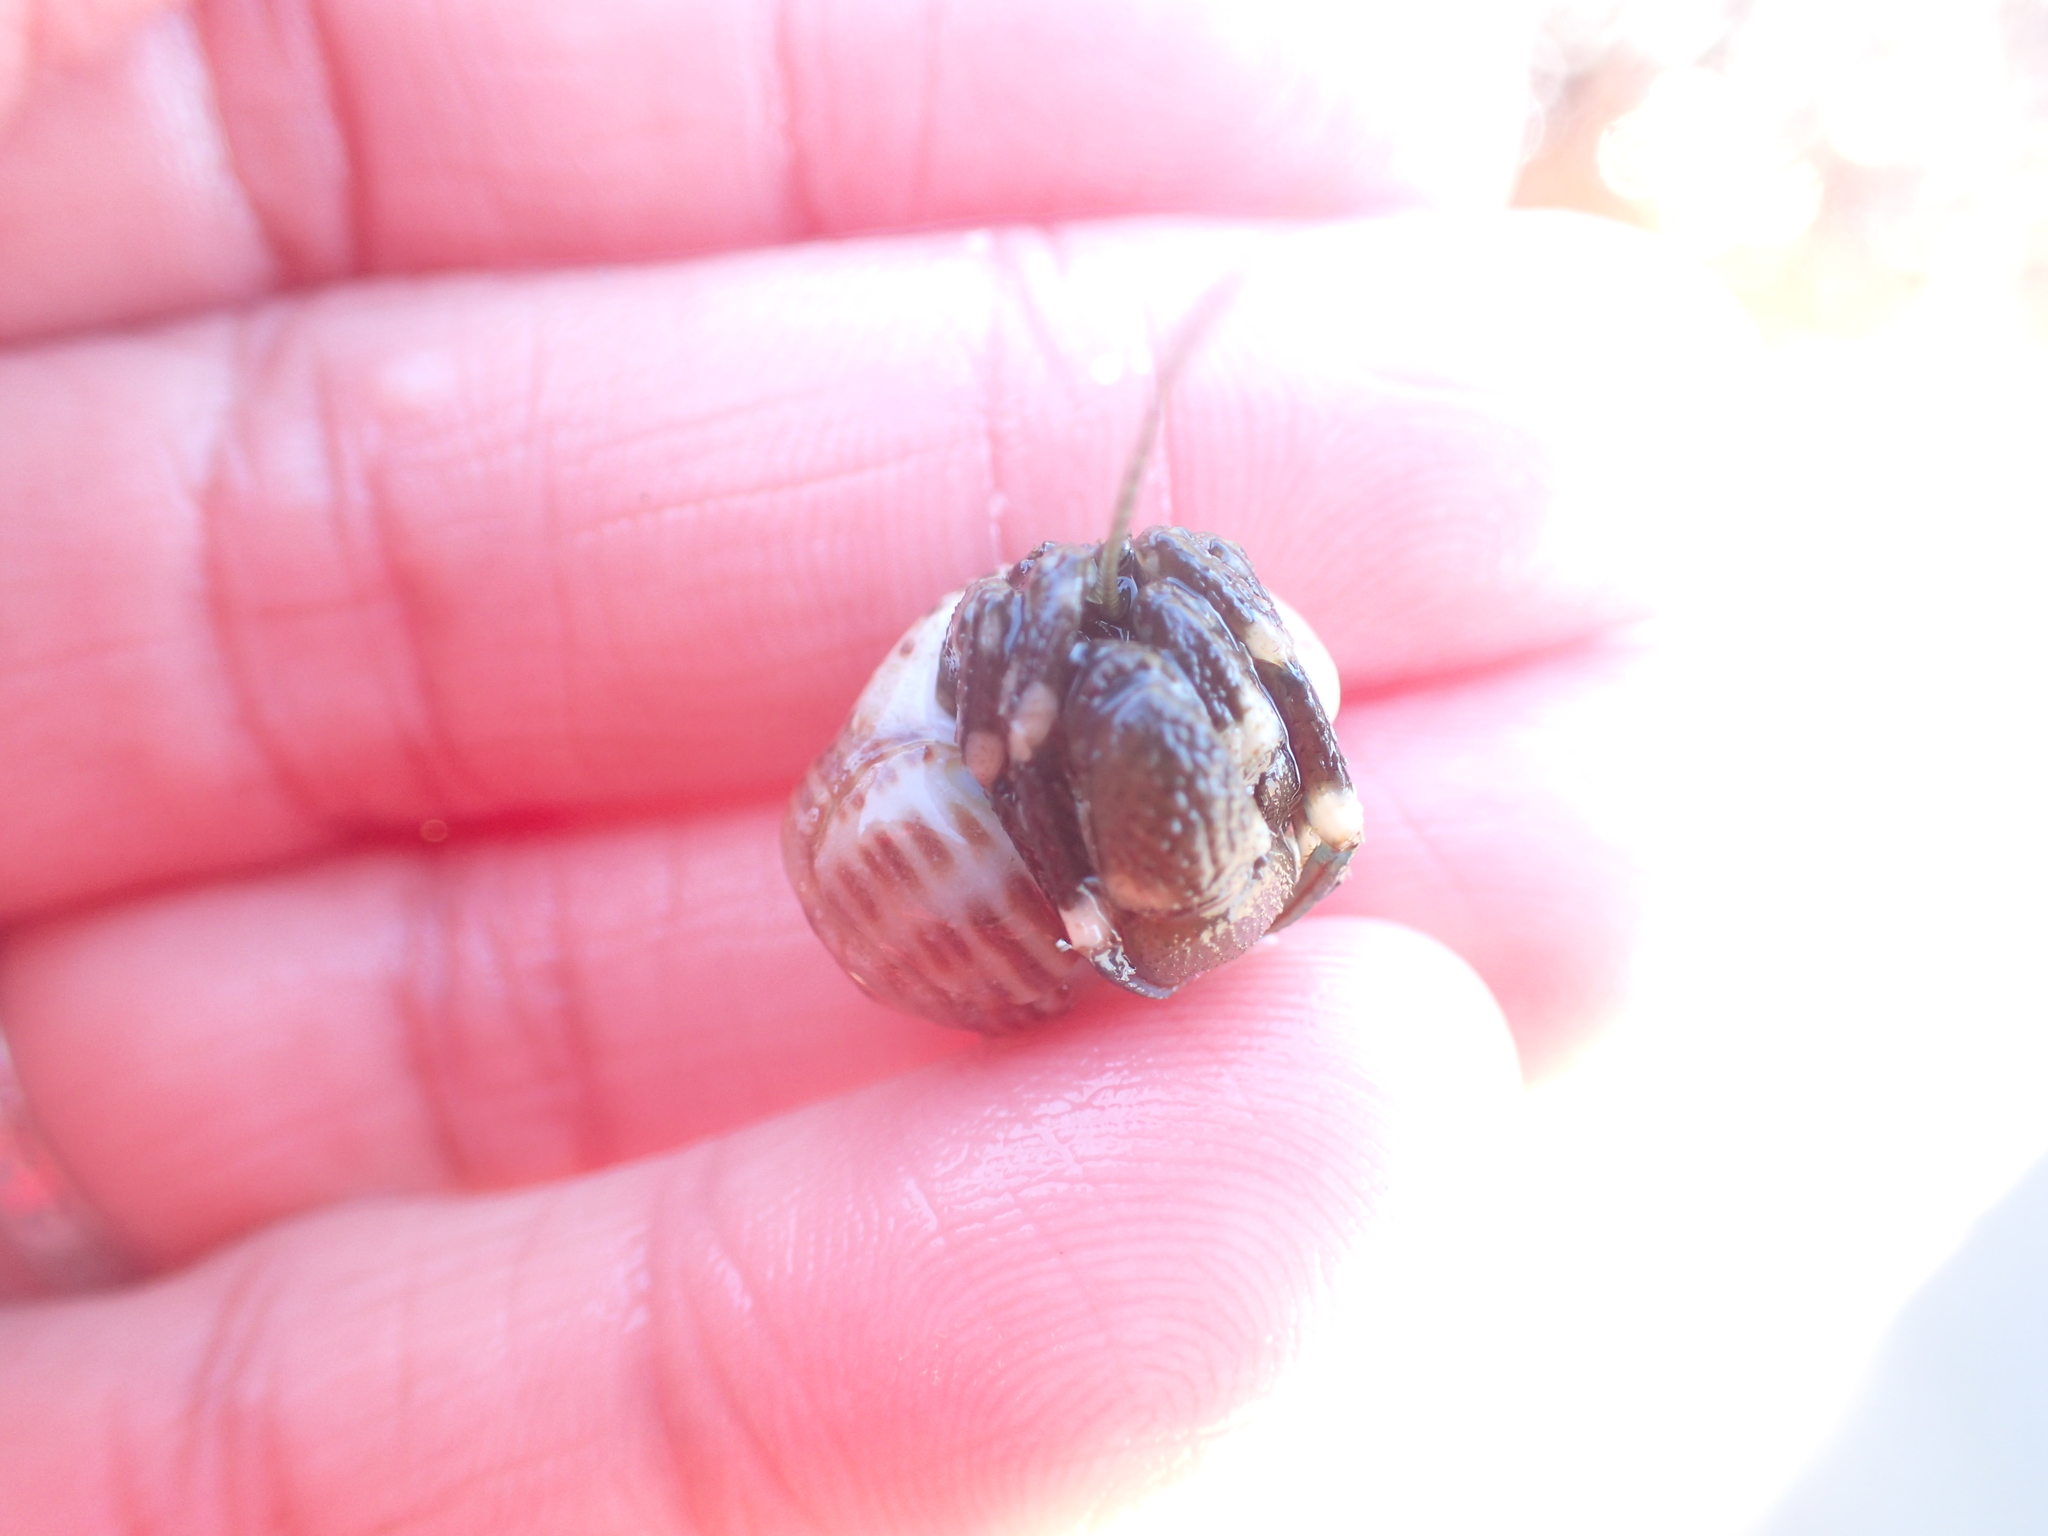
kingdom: Animalia
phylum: Arthropoda
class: Malacostraca
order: Decapoda
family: Paguridae
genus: Pagurus
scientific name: Pagurus hirsutiusculus
